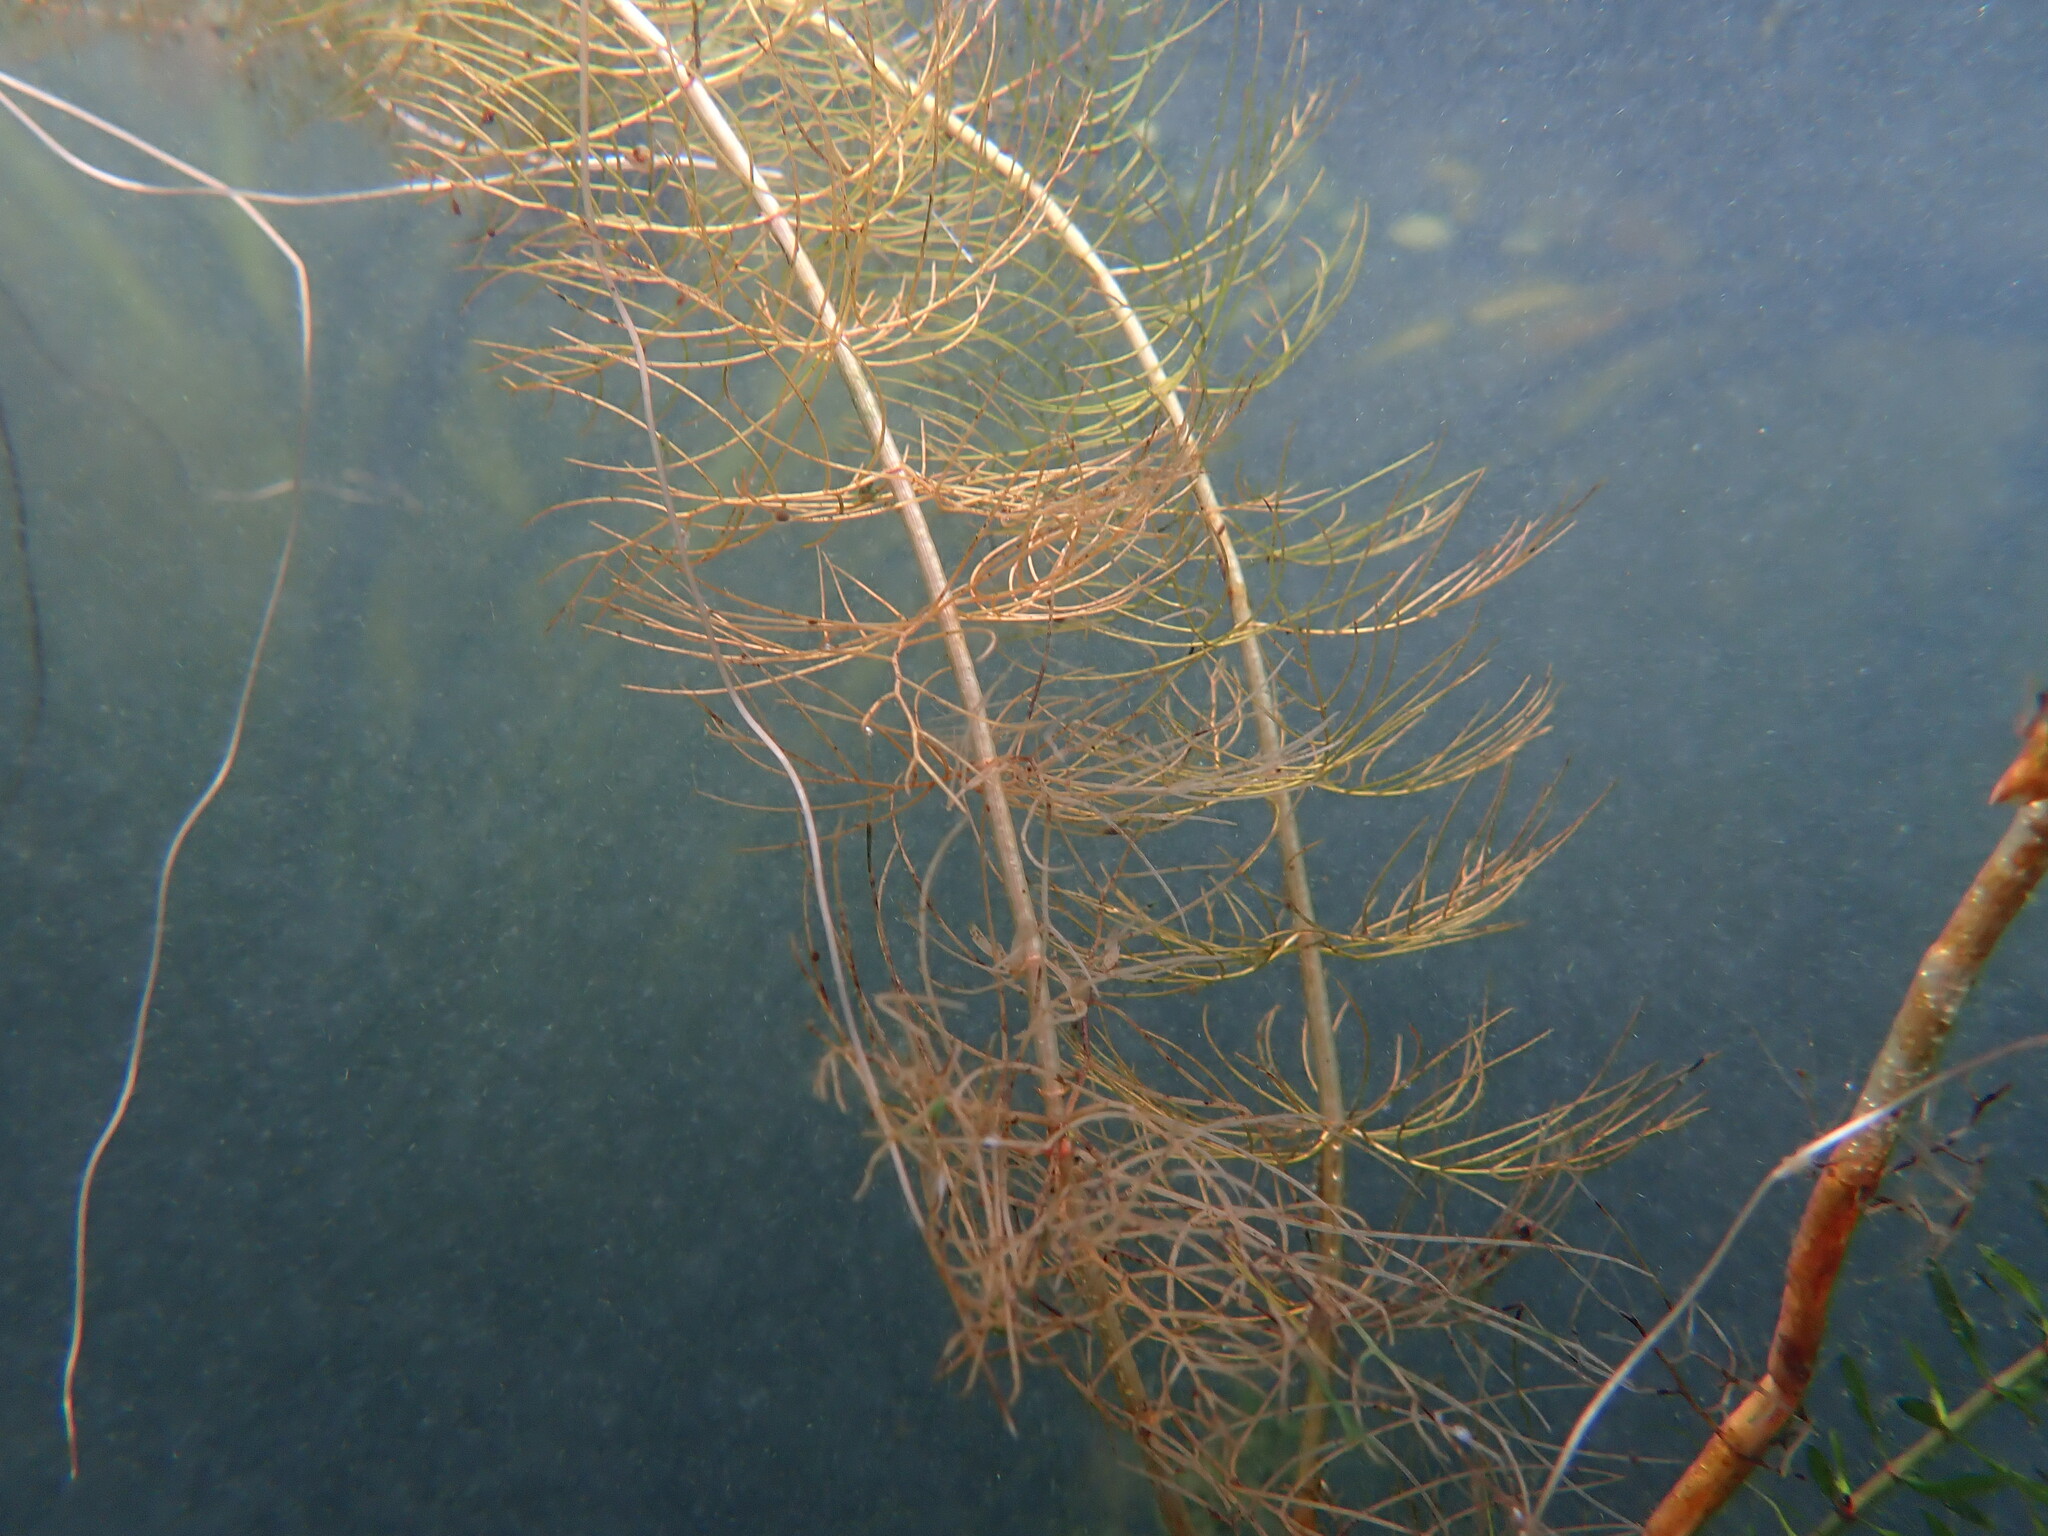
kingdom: Plantae
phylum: Tracheophyta
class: Magnoliopsida
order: Saxifragales
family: Haloragaceae
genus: Myriophyllum
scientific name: Myriophyllum sibiricum
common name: Siberian water-milfoil
